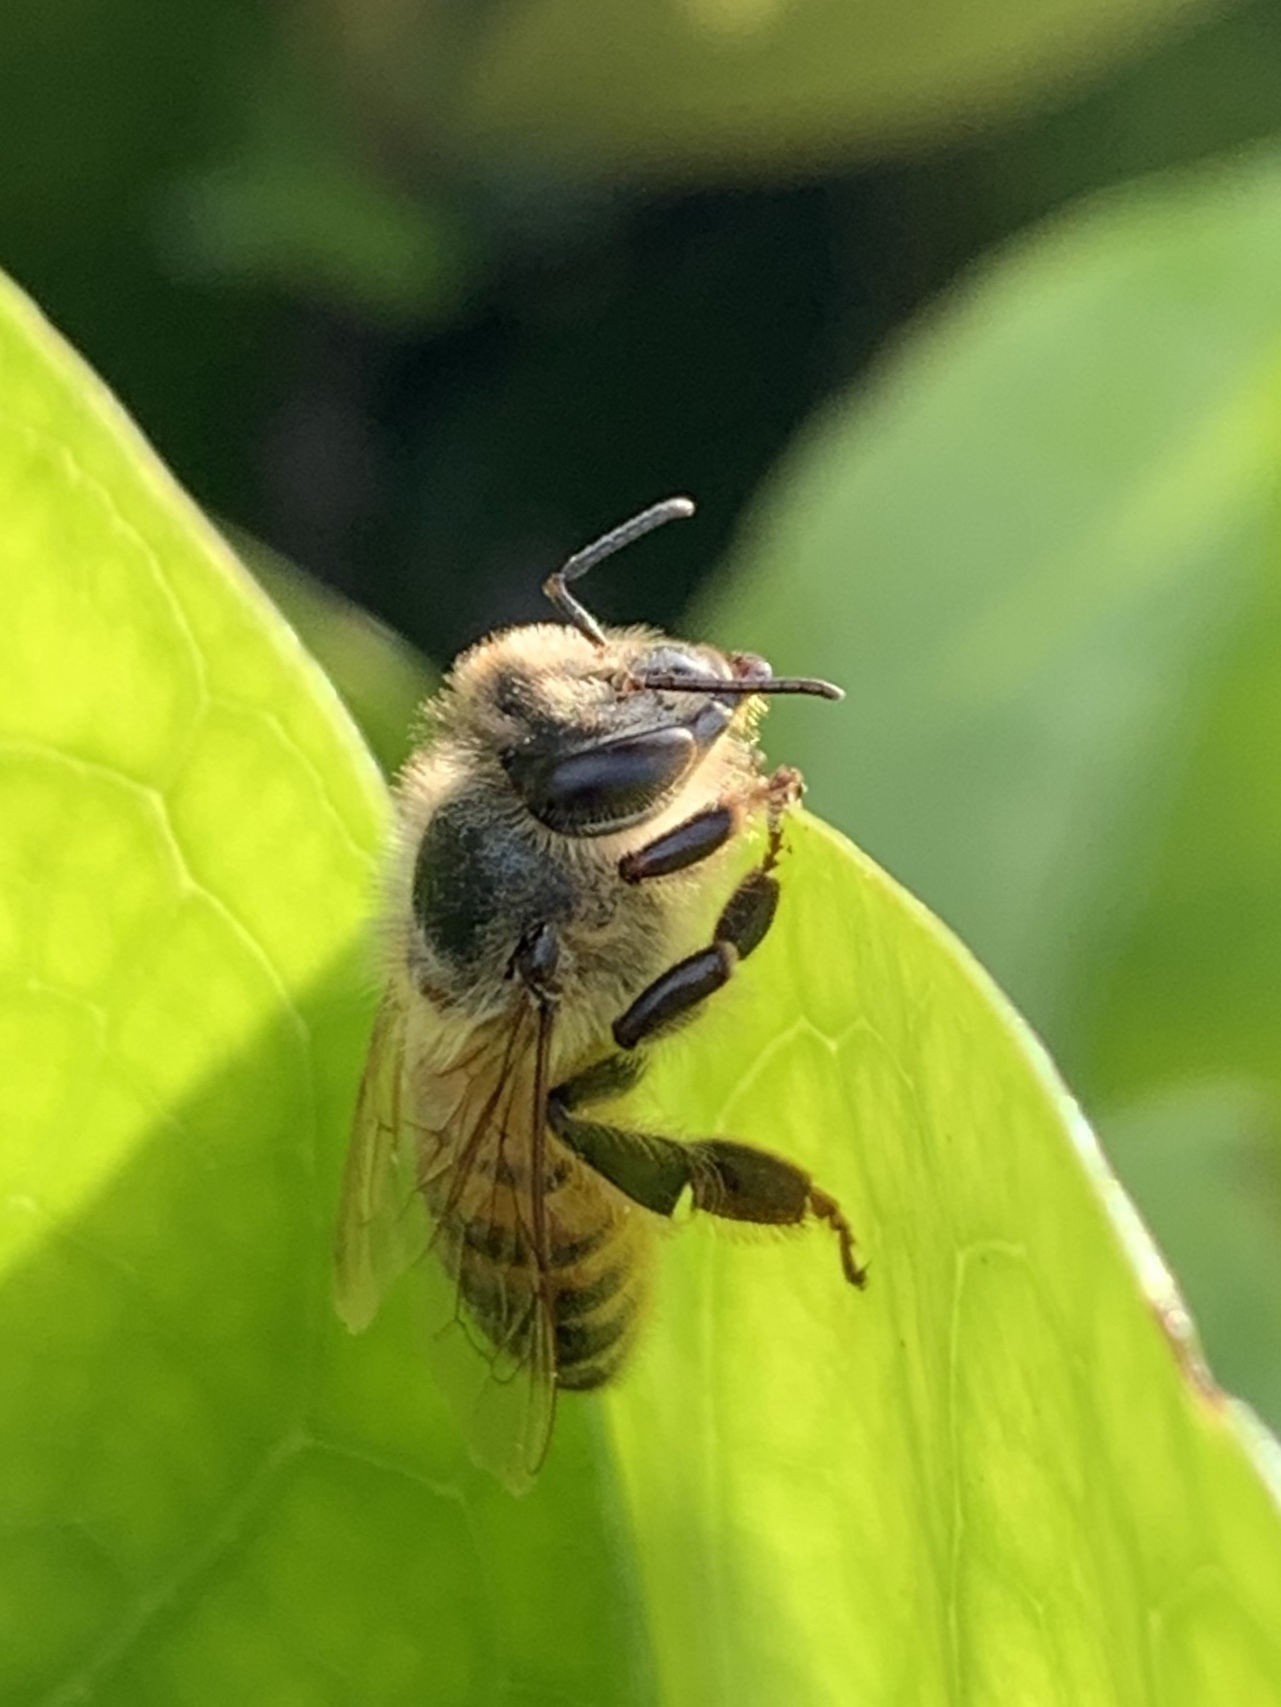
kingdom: Animalia
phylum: Arthropoda
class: Insecta
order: Hymenoptera
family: Apidae
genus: Apis
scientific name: Apis mellifera
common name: Honey bee
